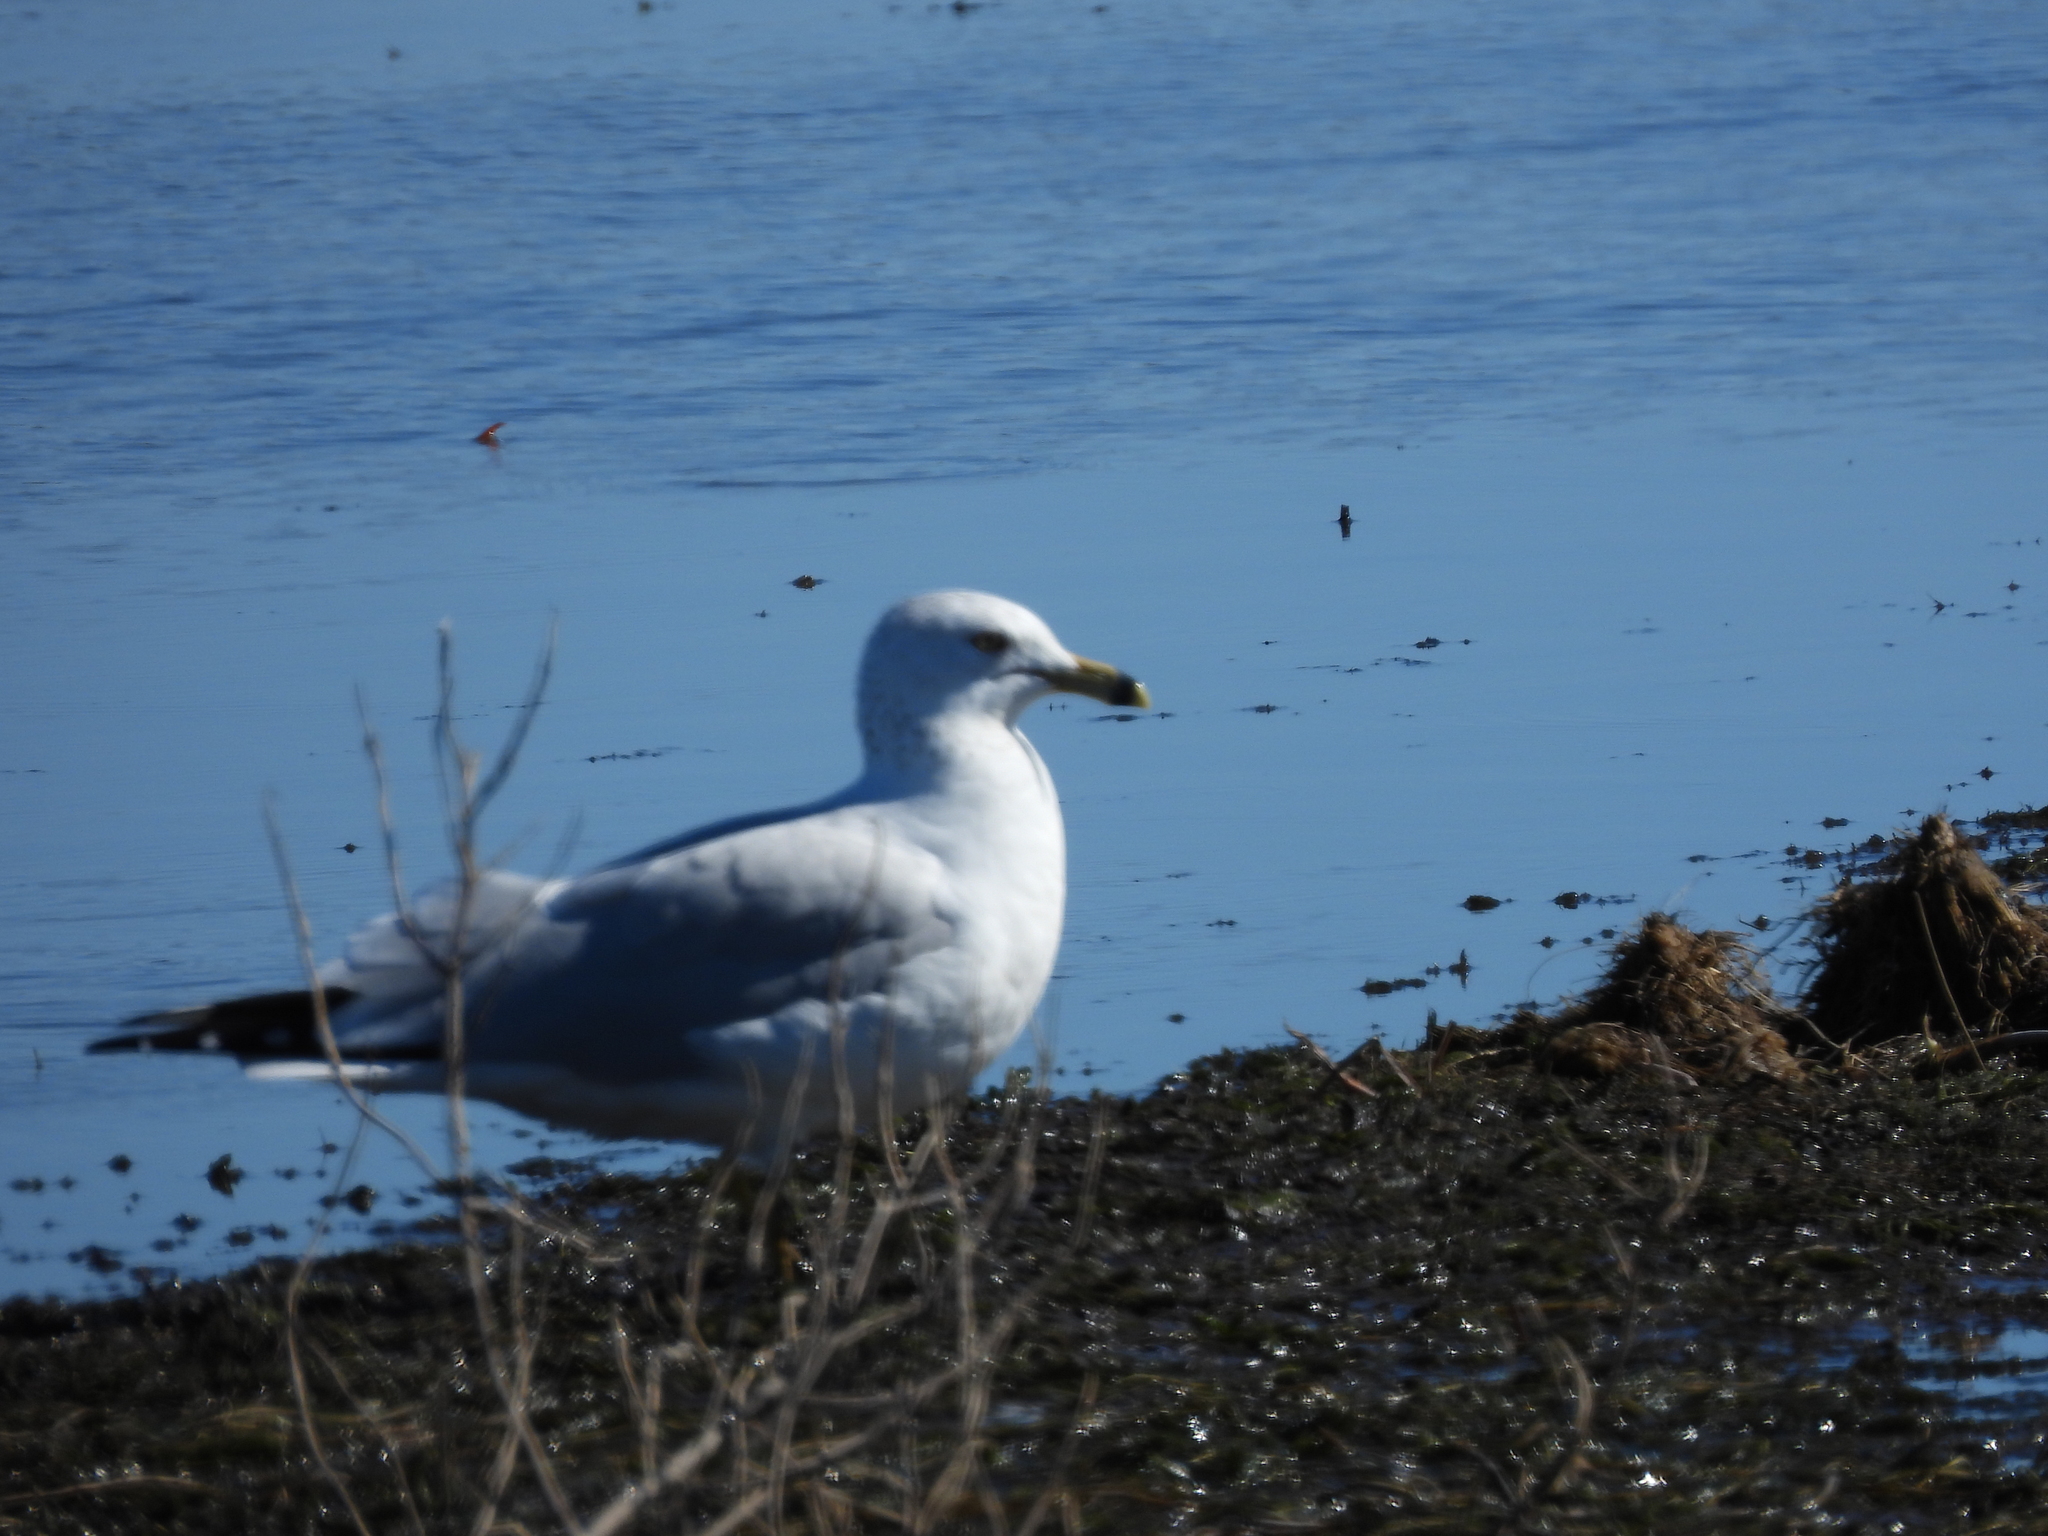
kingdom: Animalia
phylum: Chordata
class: Aves
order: Charadriiformes
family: Laridae
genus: Larus
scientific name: Larus delawarensis
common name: Ring-billed gull
